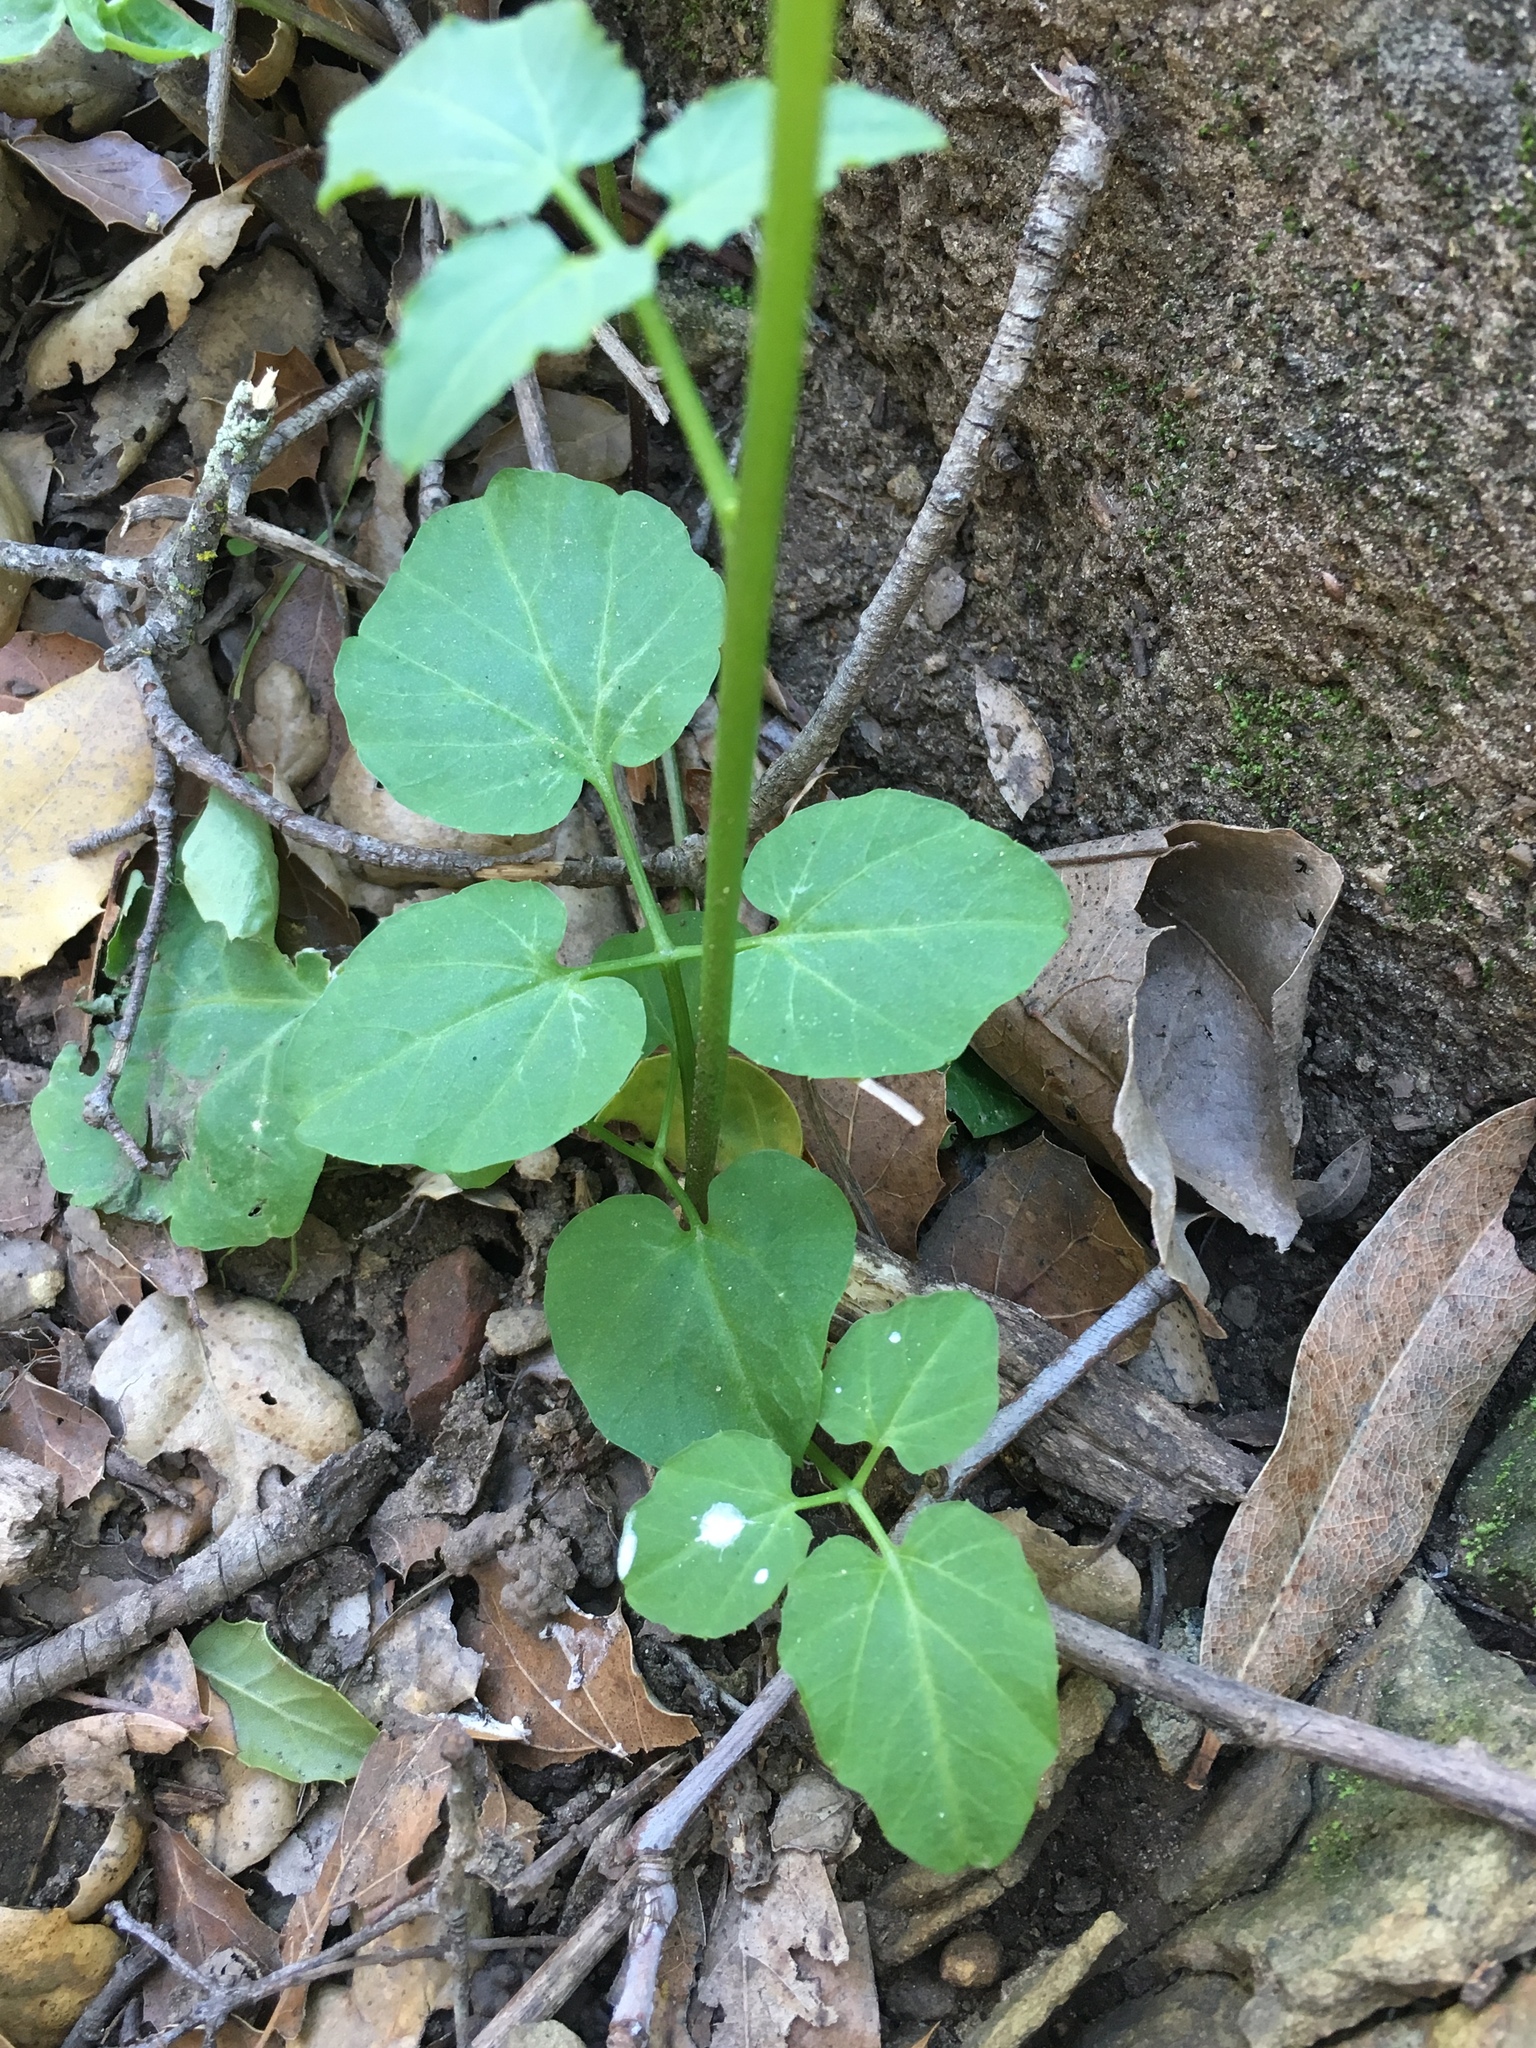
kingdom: Plantae
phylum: Tracheophyta
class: Magnoliopsida
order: Brassicales
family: Brassicaceae
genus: Cardamine
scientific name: Cardamine californica
